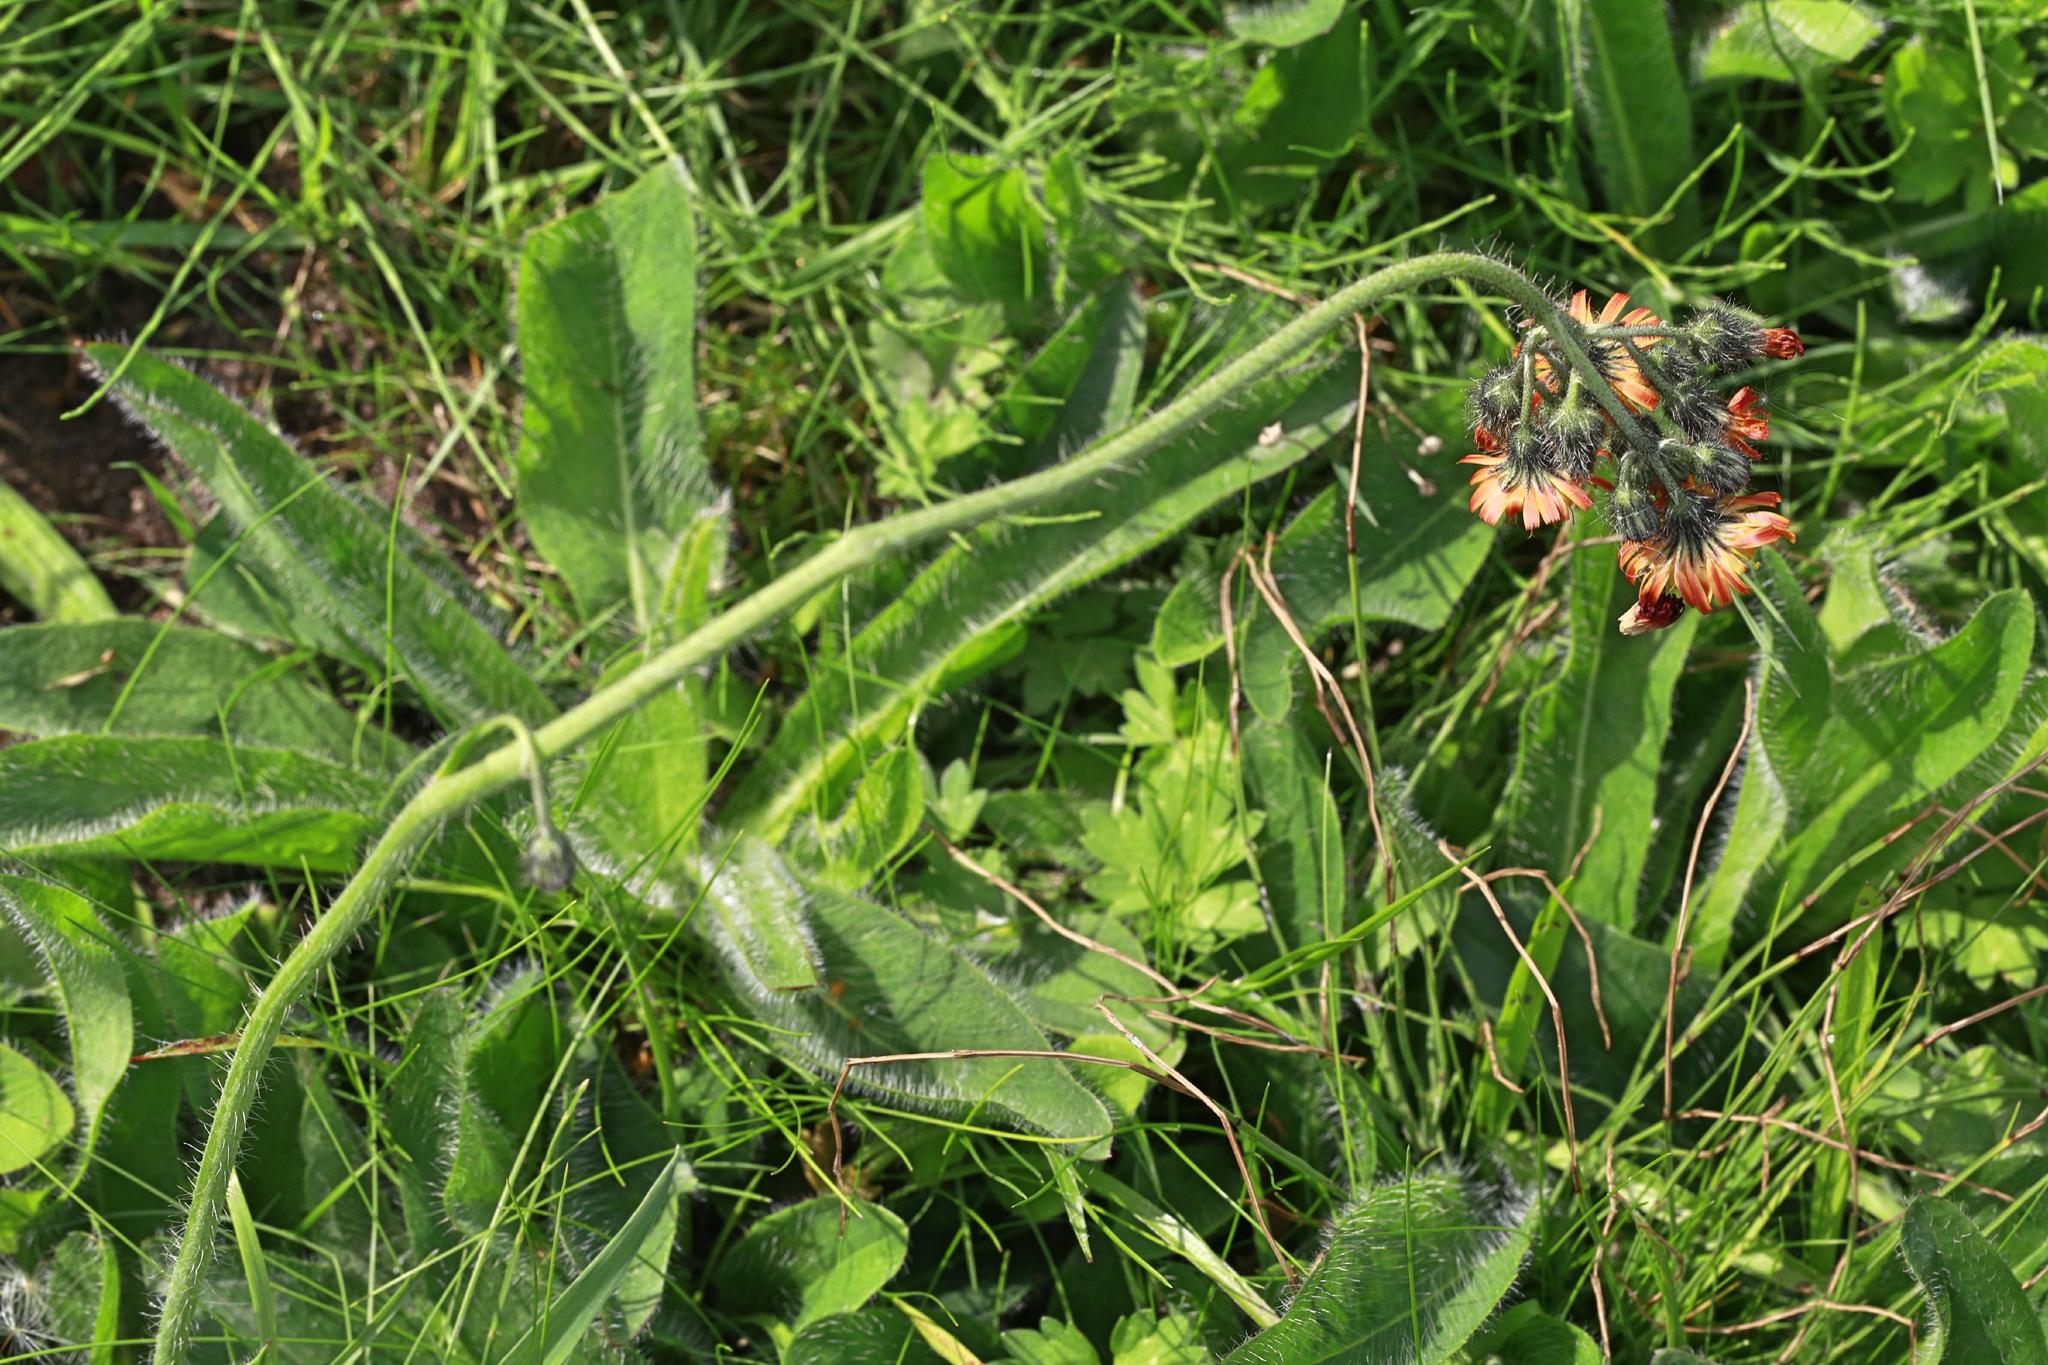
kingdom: Plantae
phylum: Tracheophyta
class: Magnoliopsida
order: Asterales
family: Asteraceae
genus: Pilosella
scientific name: Pilosella aurantiaca
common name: Fox-and-cubs
